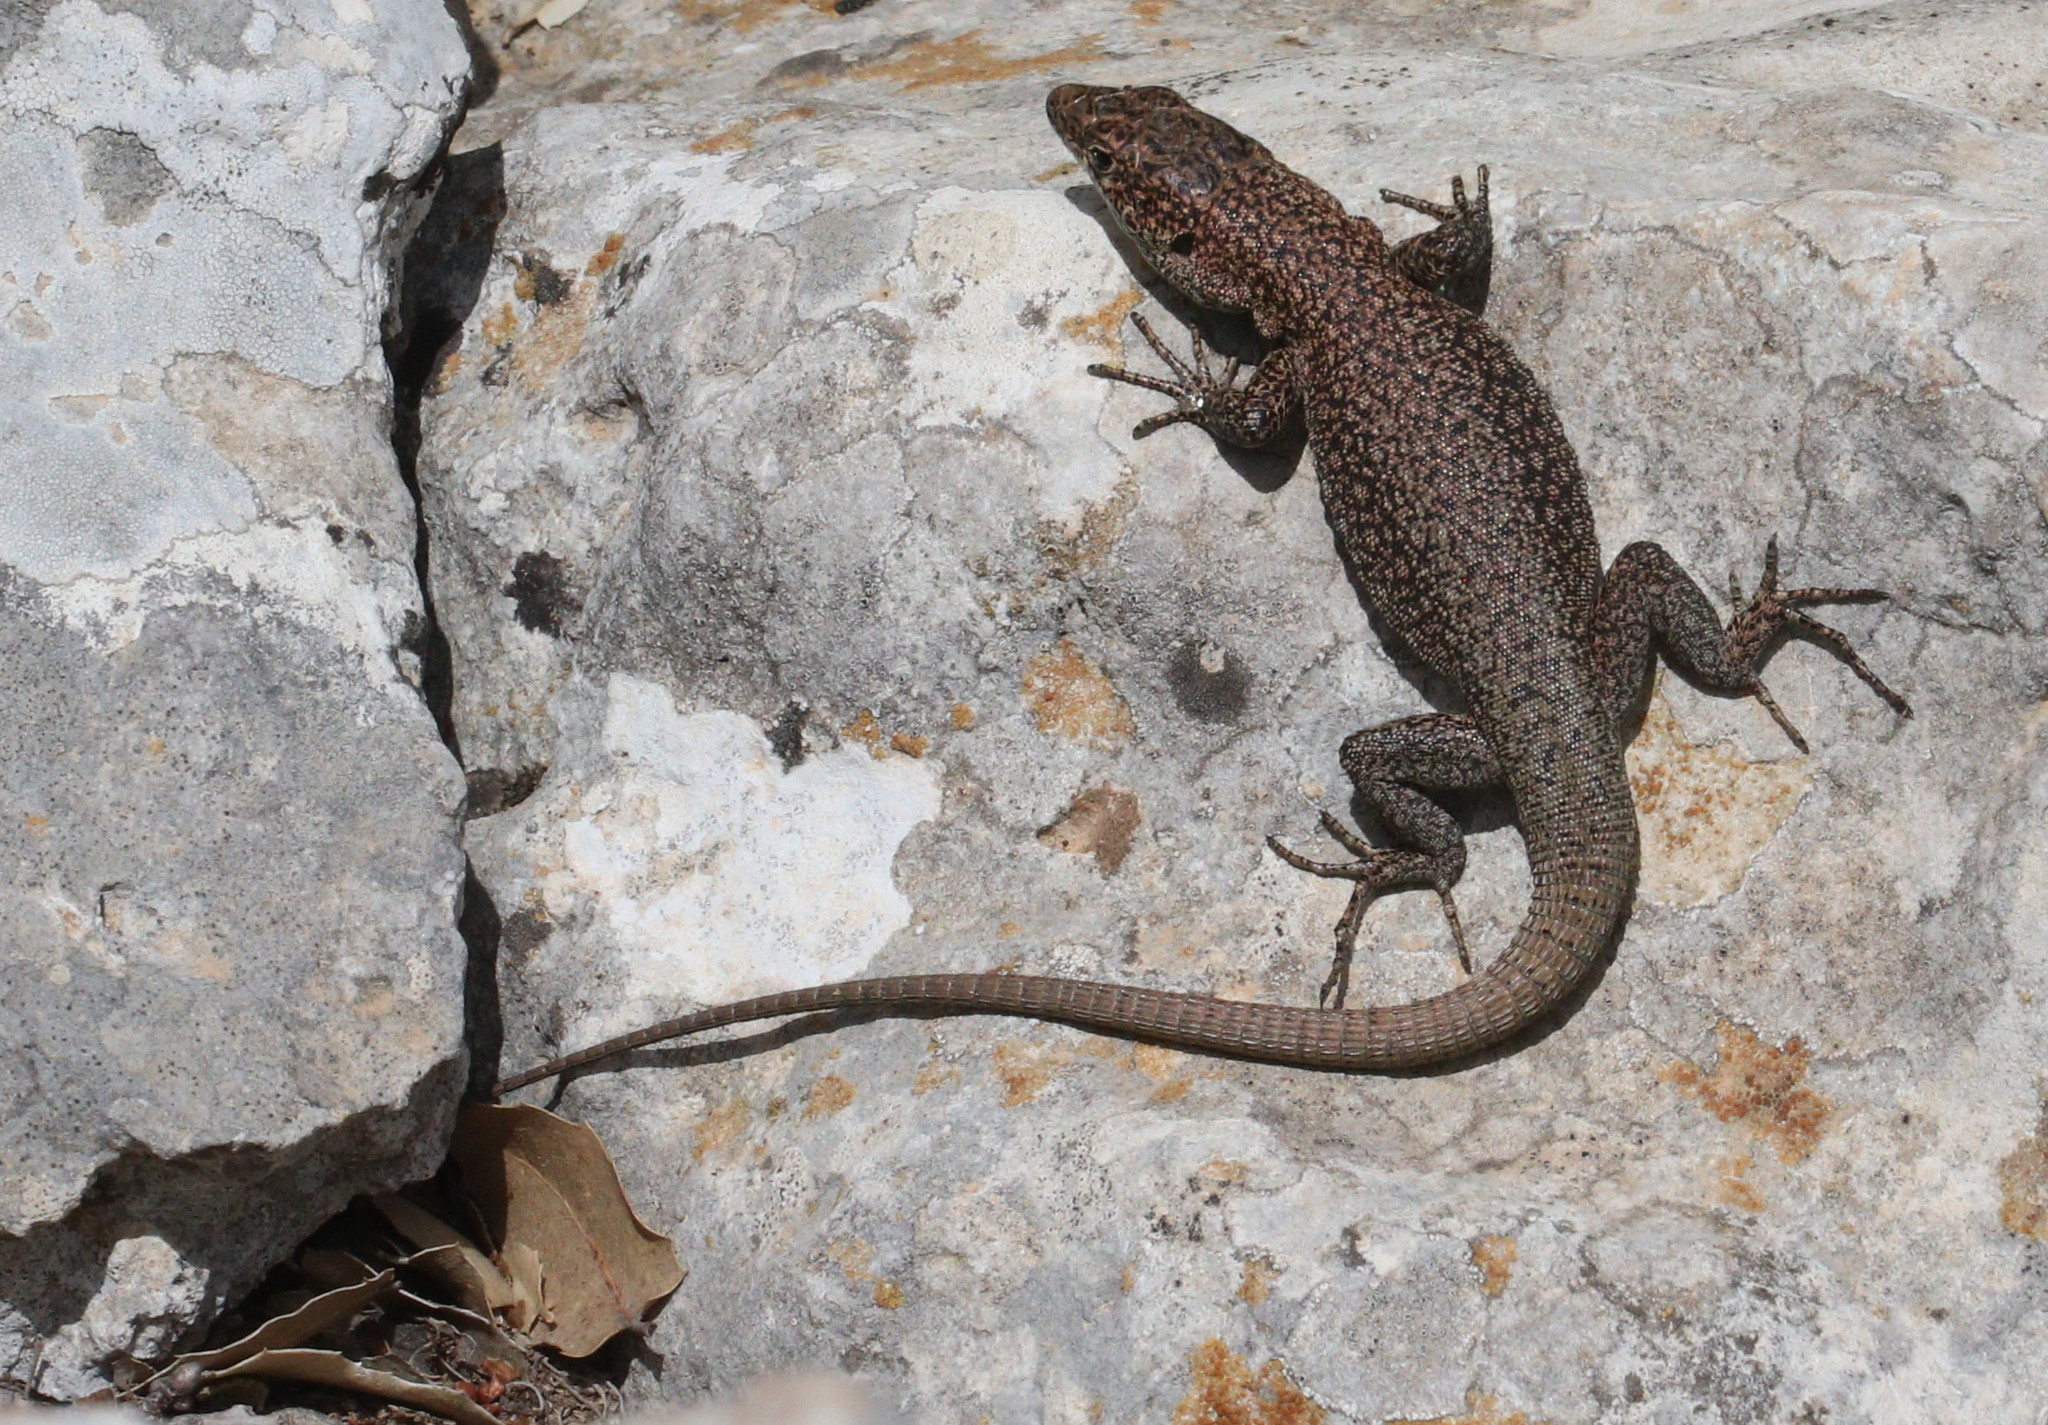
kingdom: Animalia
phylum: Chordata
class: Squamata
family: Lacertidae
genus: Anatololacerta
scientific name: Anatololacerta danfordi
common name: Danford's lizard
